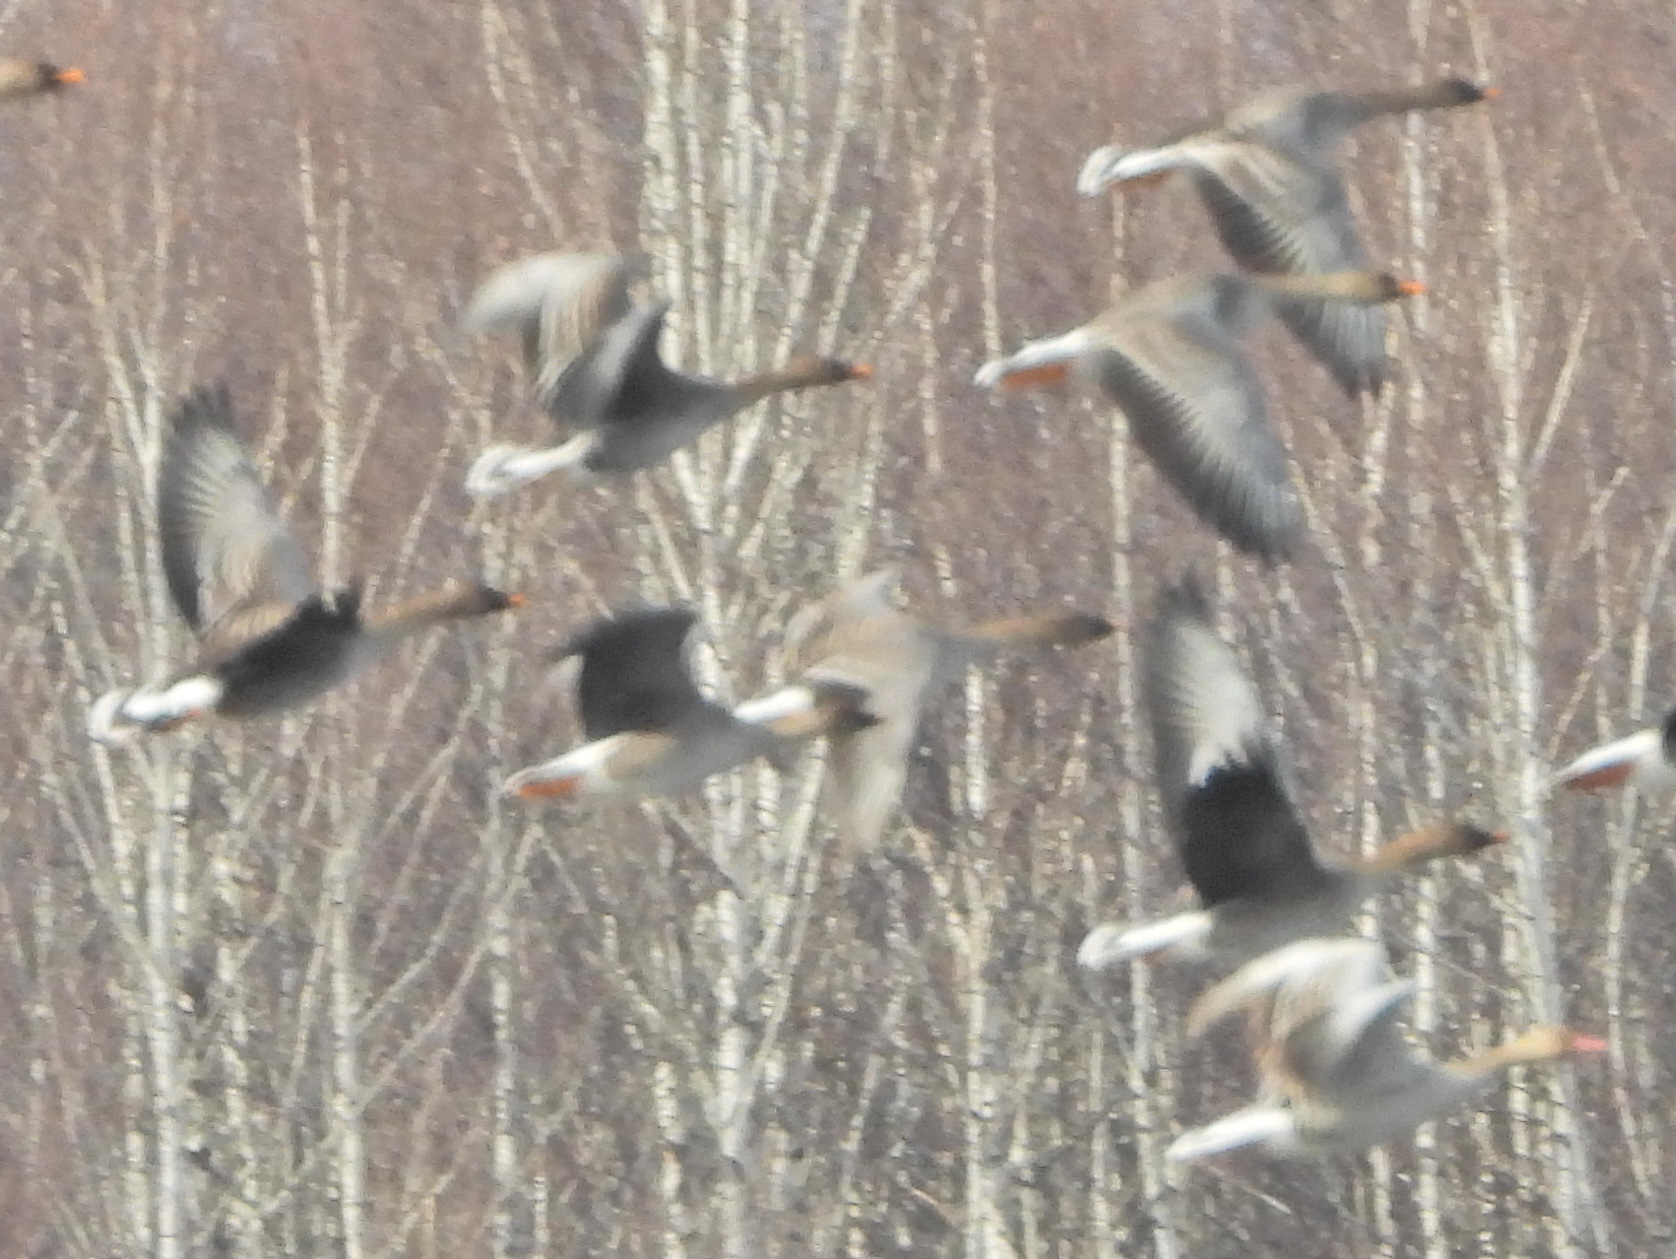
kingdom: Animalia
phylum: Chordata
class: Aves
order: Anseriformes
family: Anatidae
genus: Anser
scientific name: Anser anser
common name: Greylag goose
